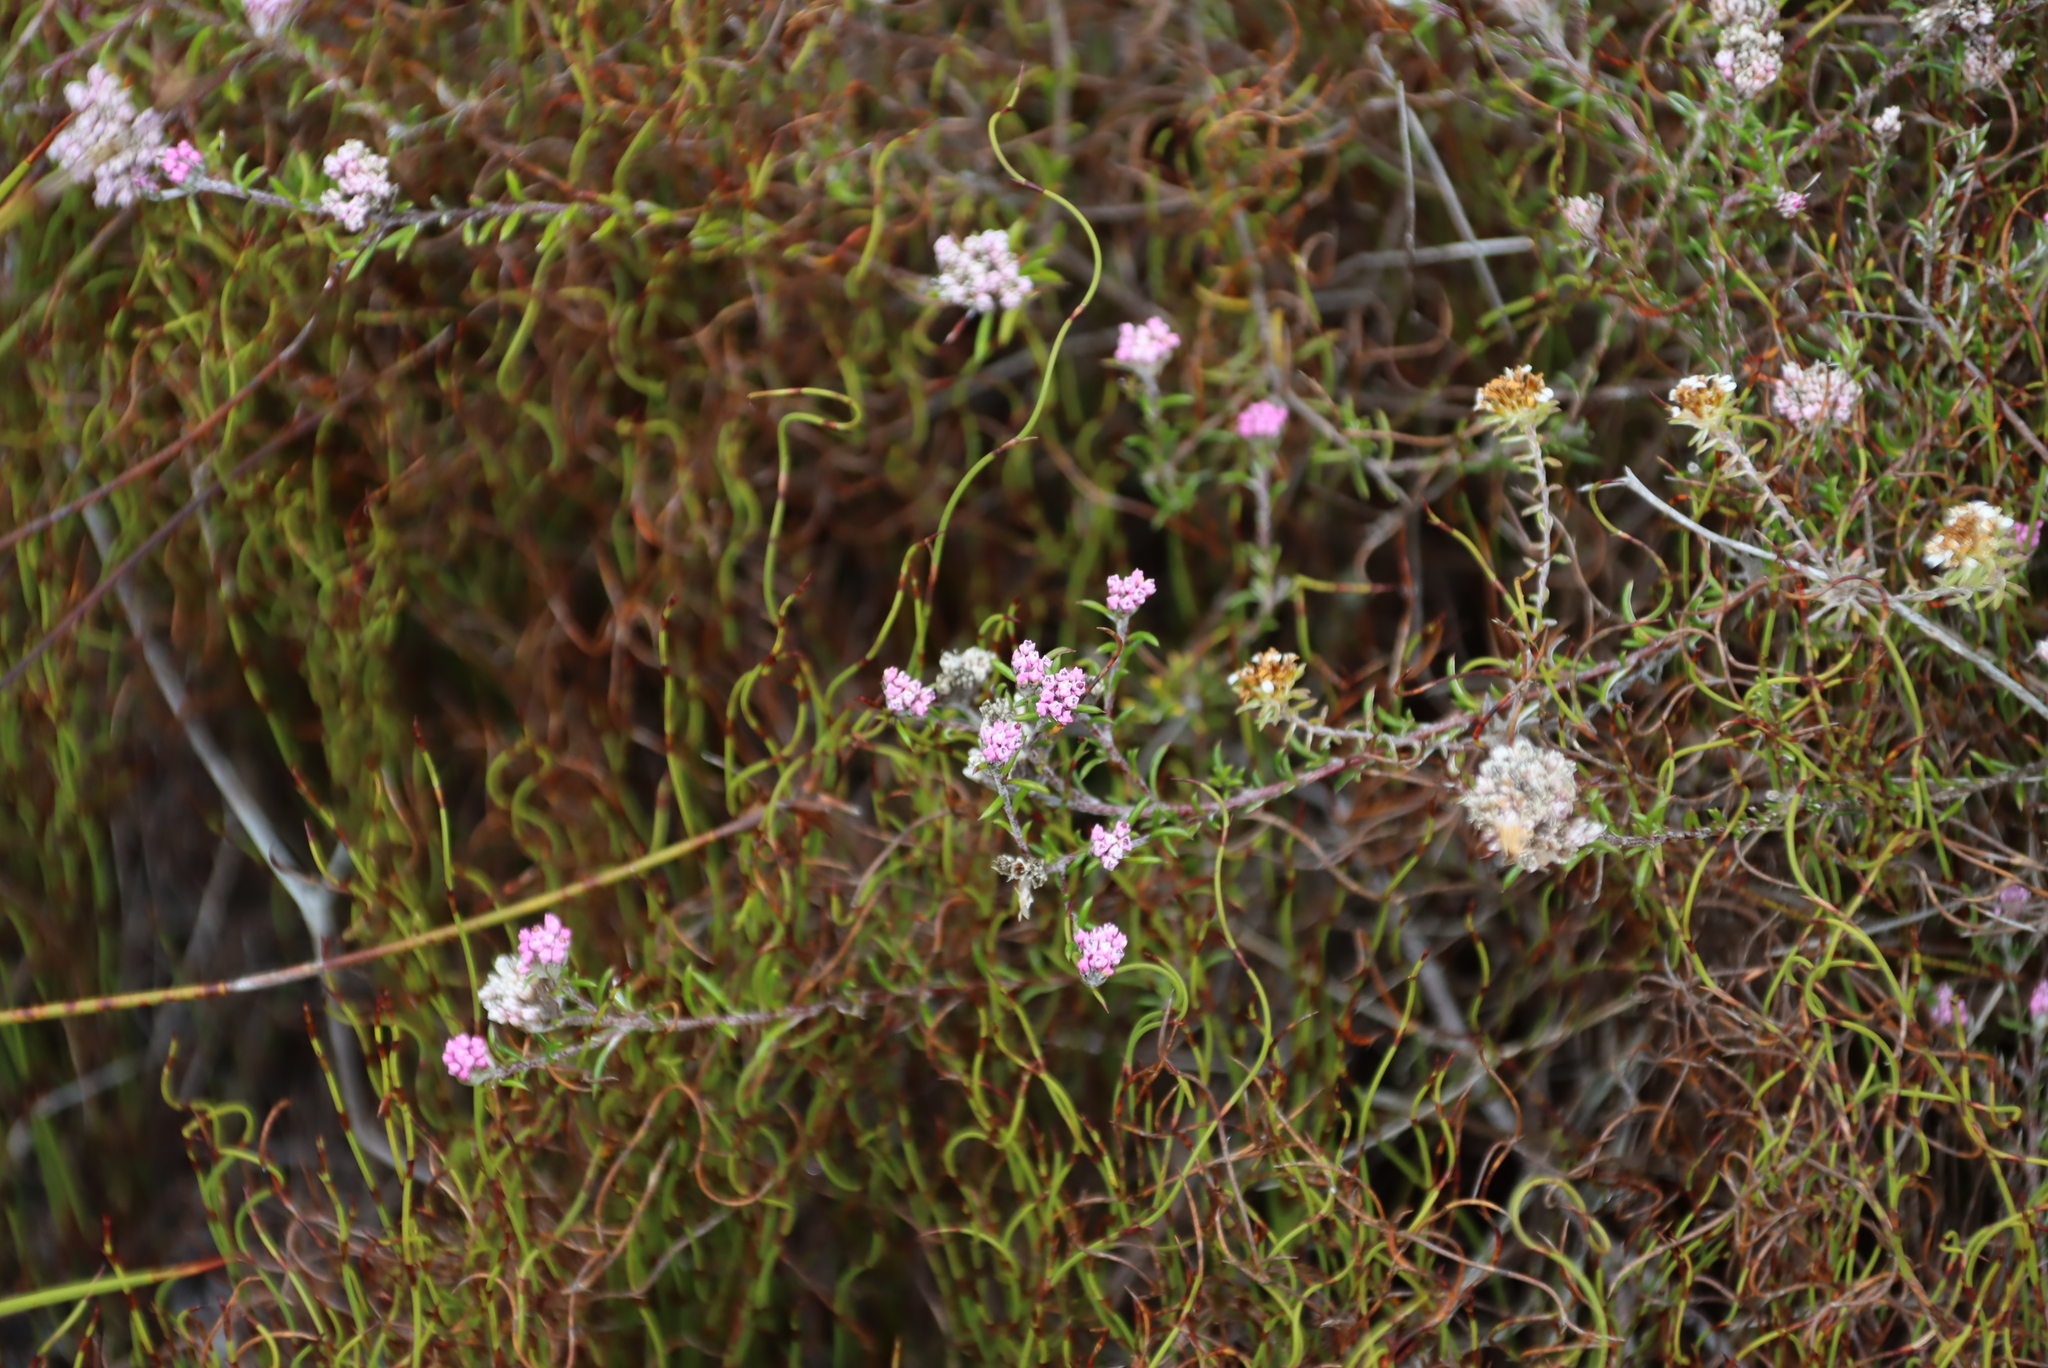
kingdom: Plantae
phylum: Tracheophyta
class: Magnoliopsida
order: Asterales
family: Asteraceae
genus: Metalasia
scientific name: Metalasia erubescens
